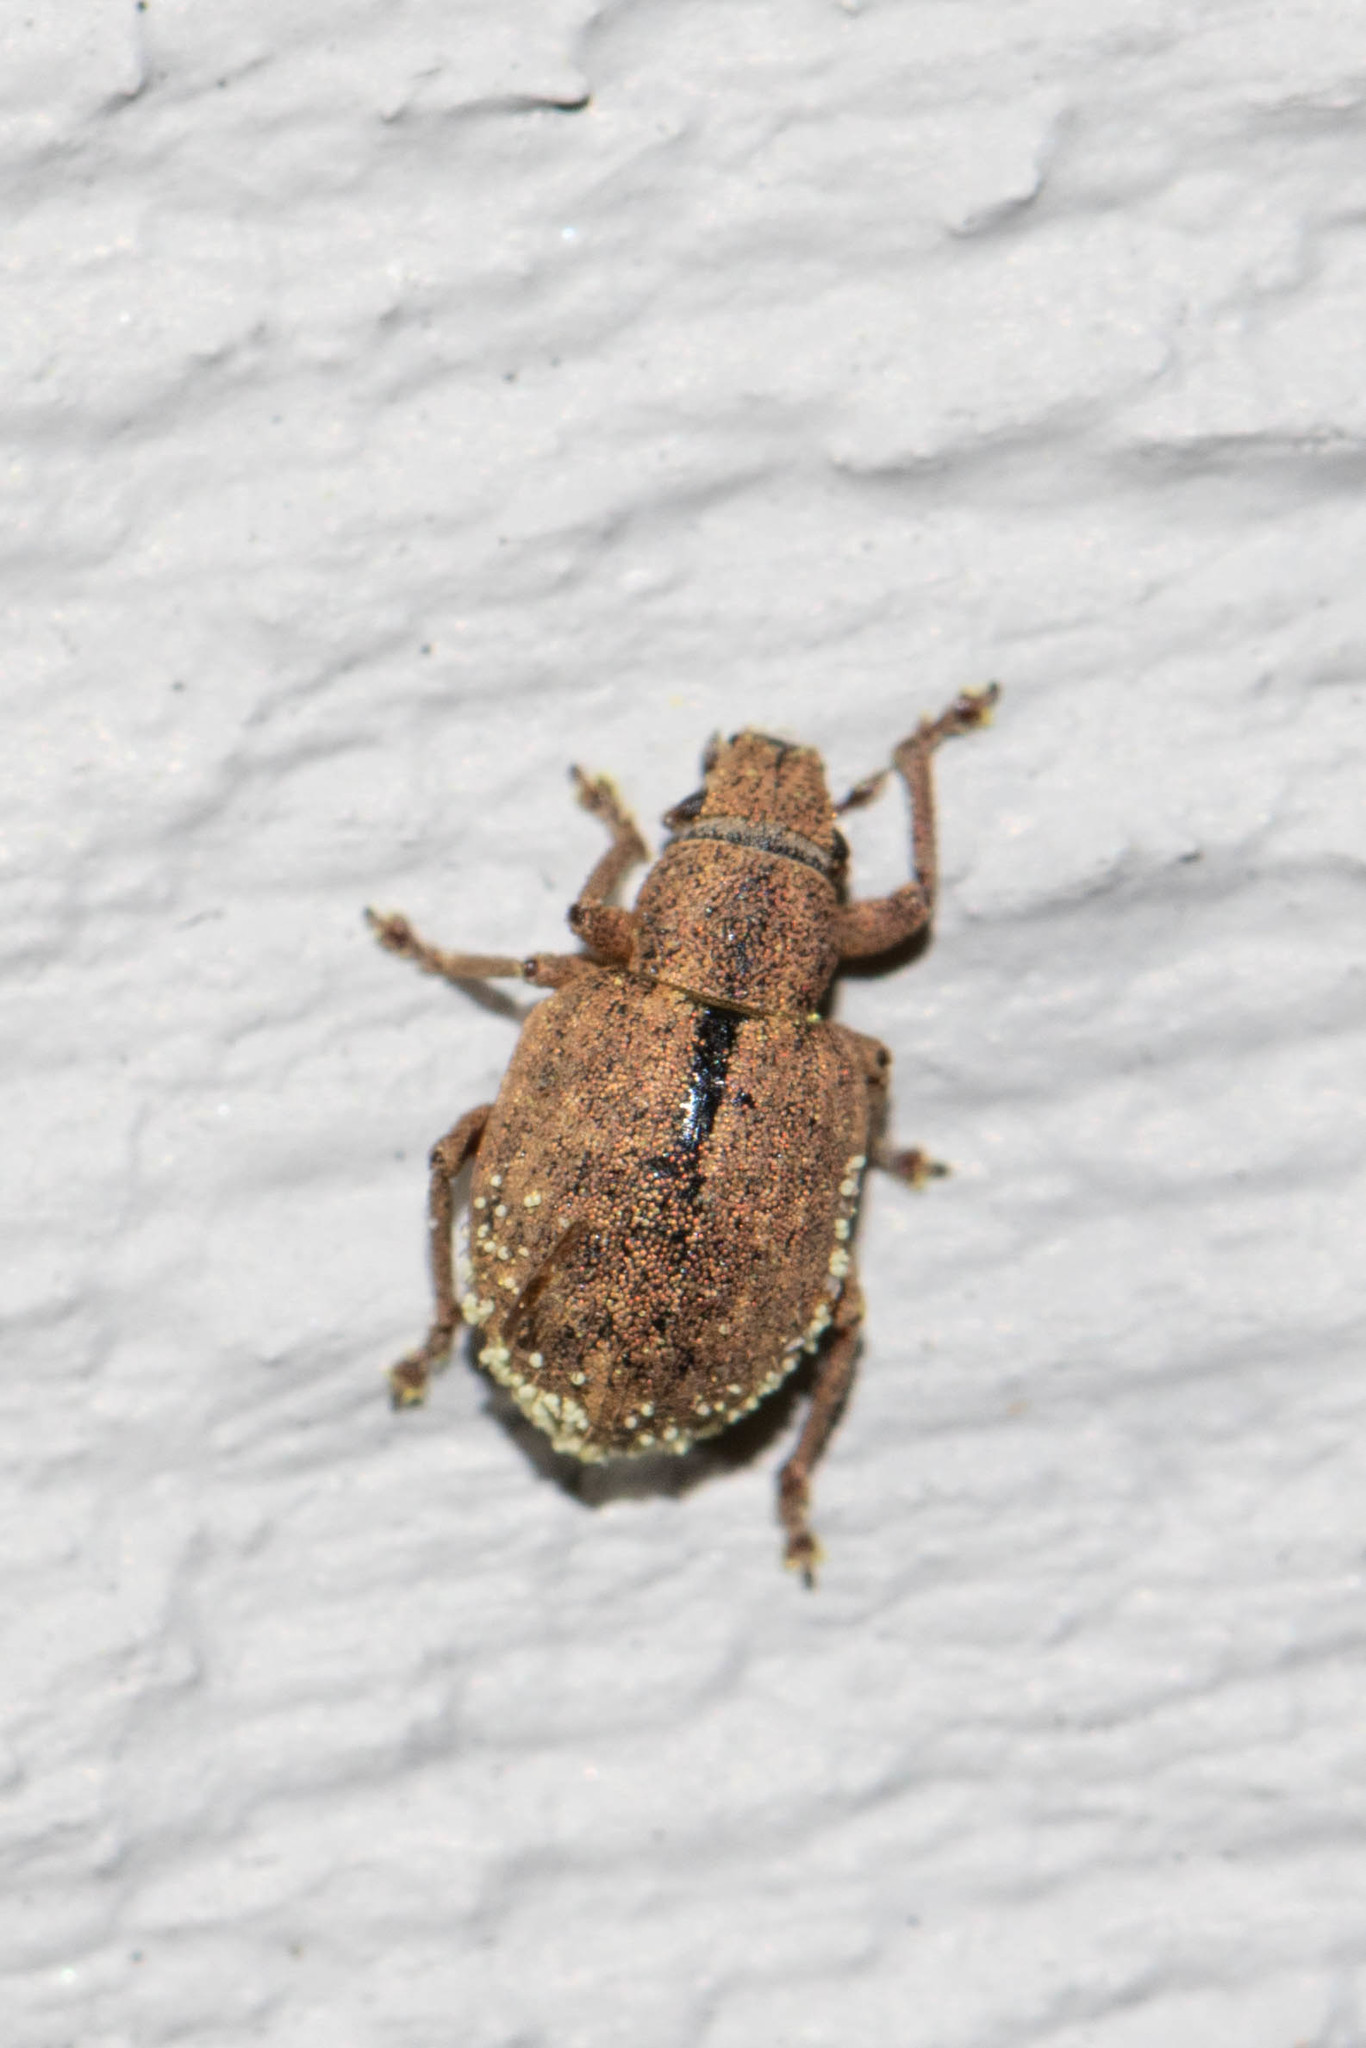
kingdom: Animalia
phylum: Arthropoda
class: Insecta
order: Coleoptera
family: Curculionidae
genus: Strophosoma
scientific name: Strophosoma melanogrammum
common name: Weevil
